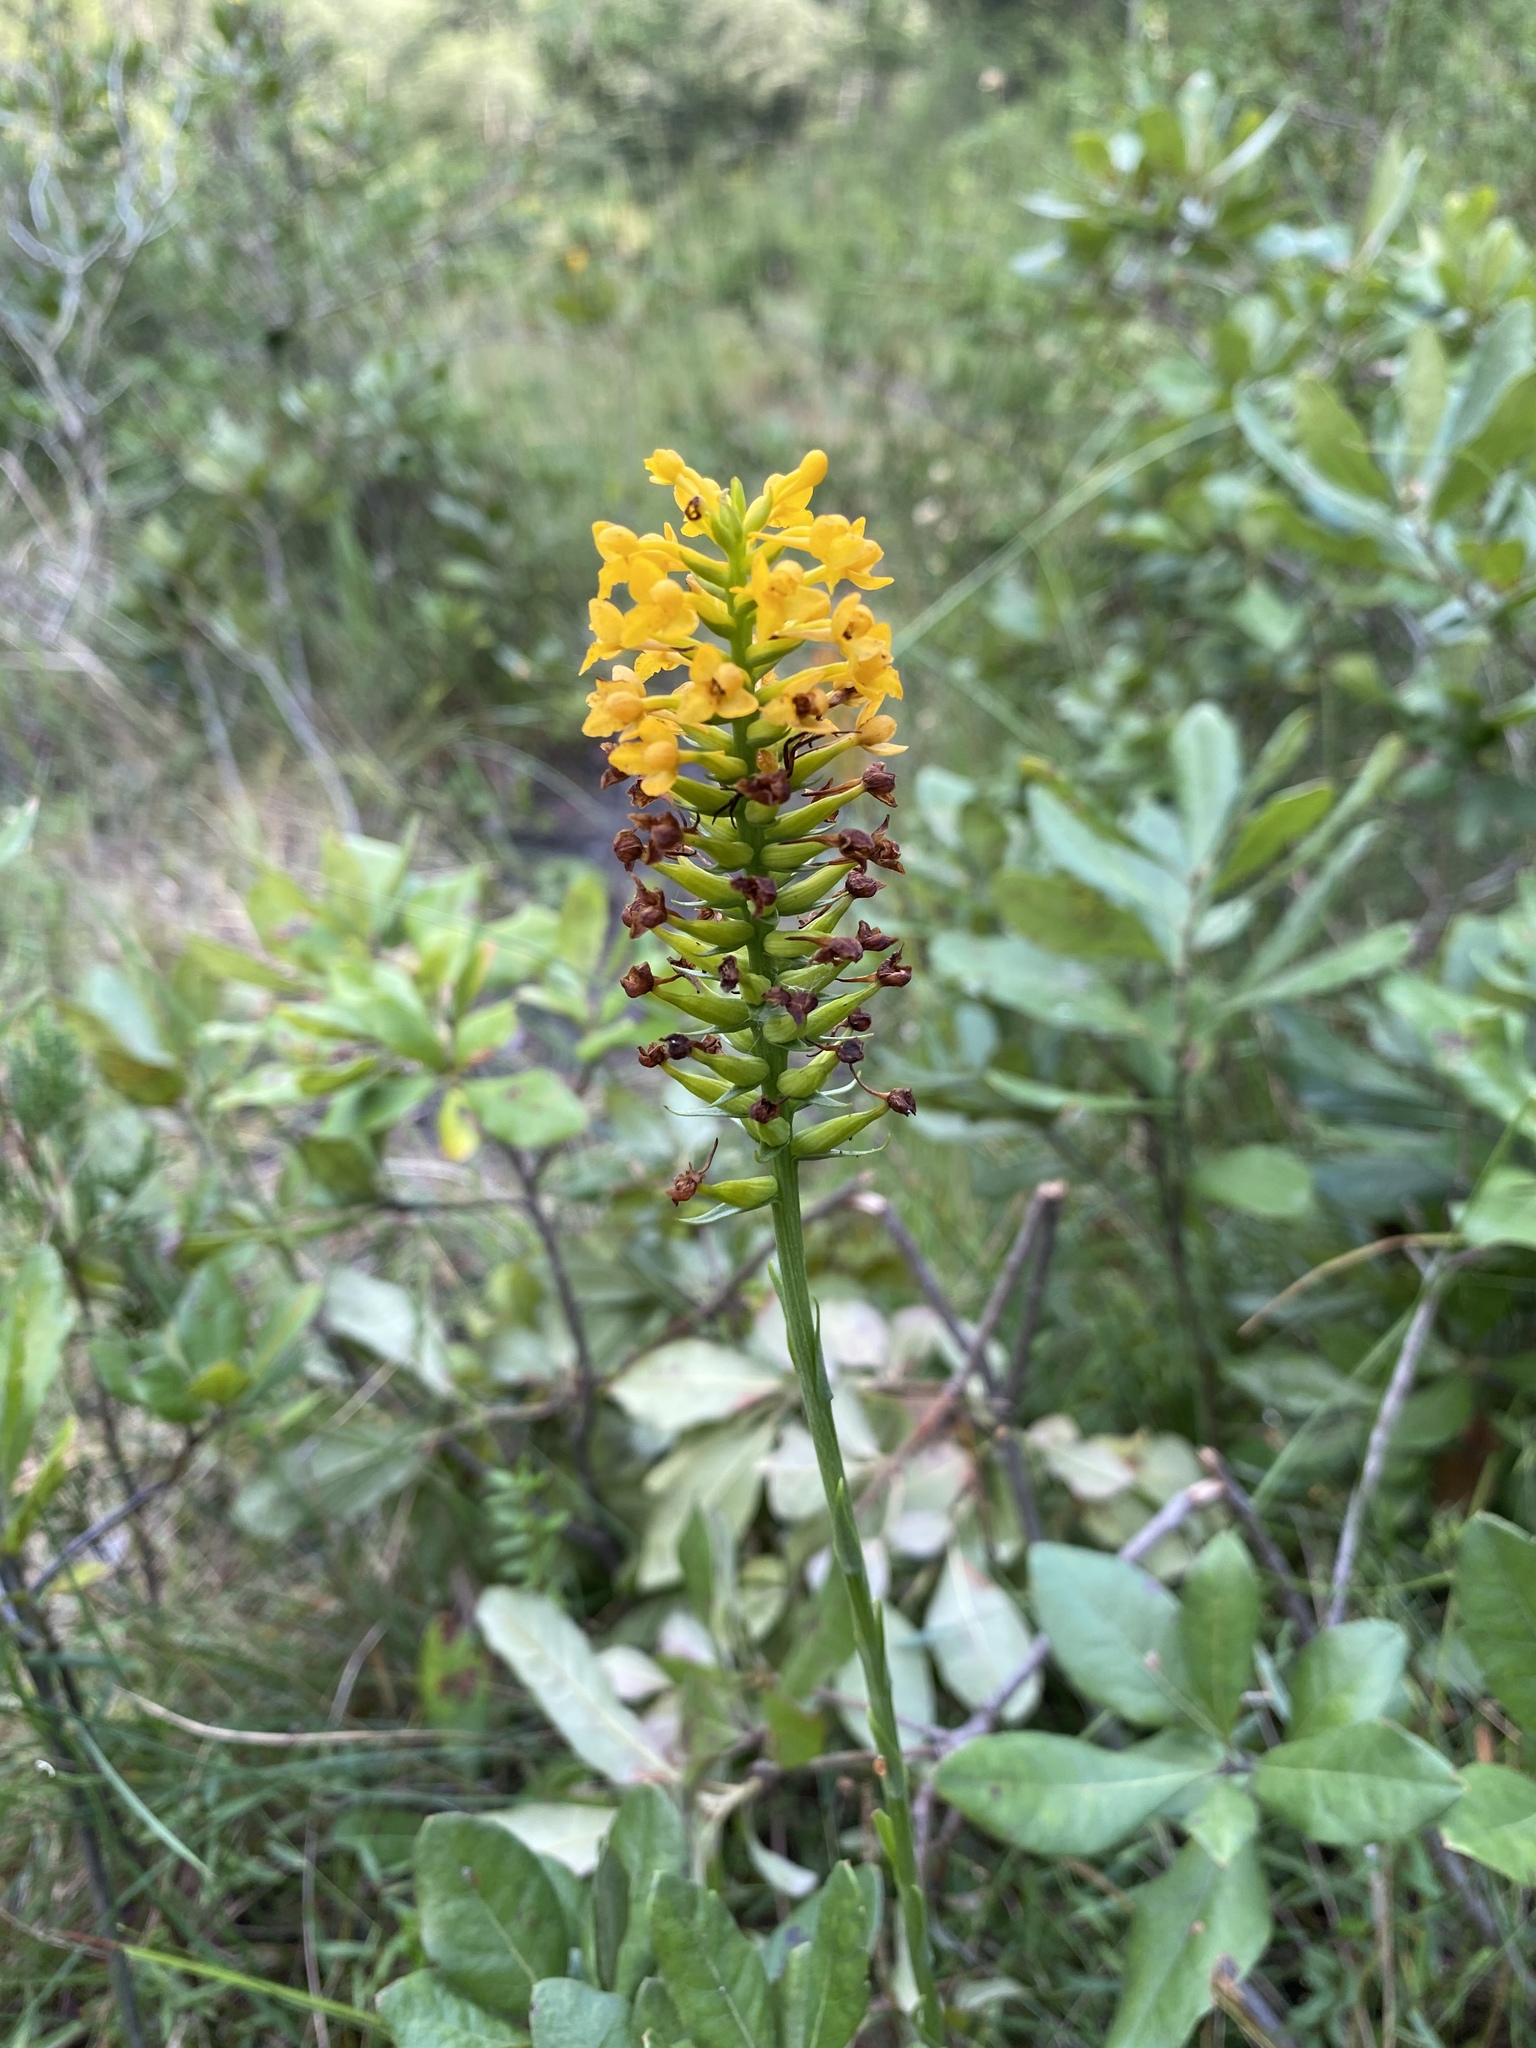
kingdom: Plantae
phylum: Tracheophyta
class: Liliopsida
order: Asparagales
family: Orchidaceae
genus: Platanthera
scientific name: Platanthera integra
